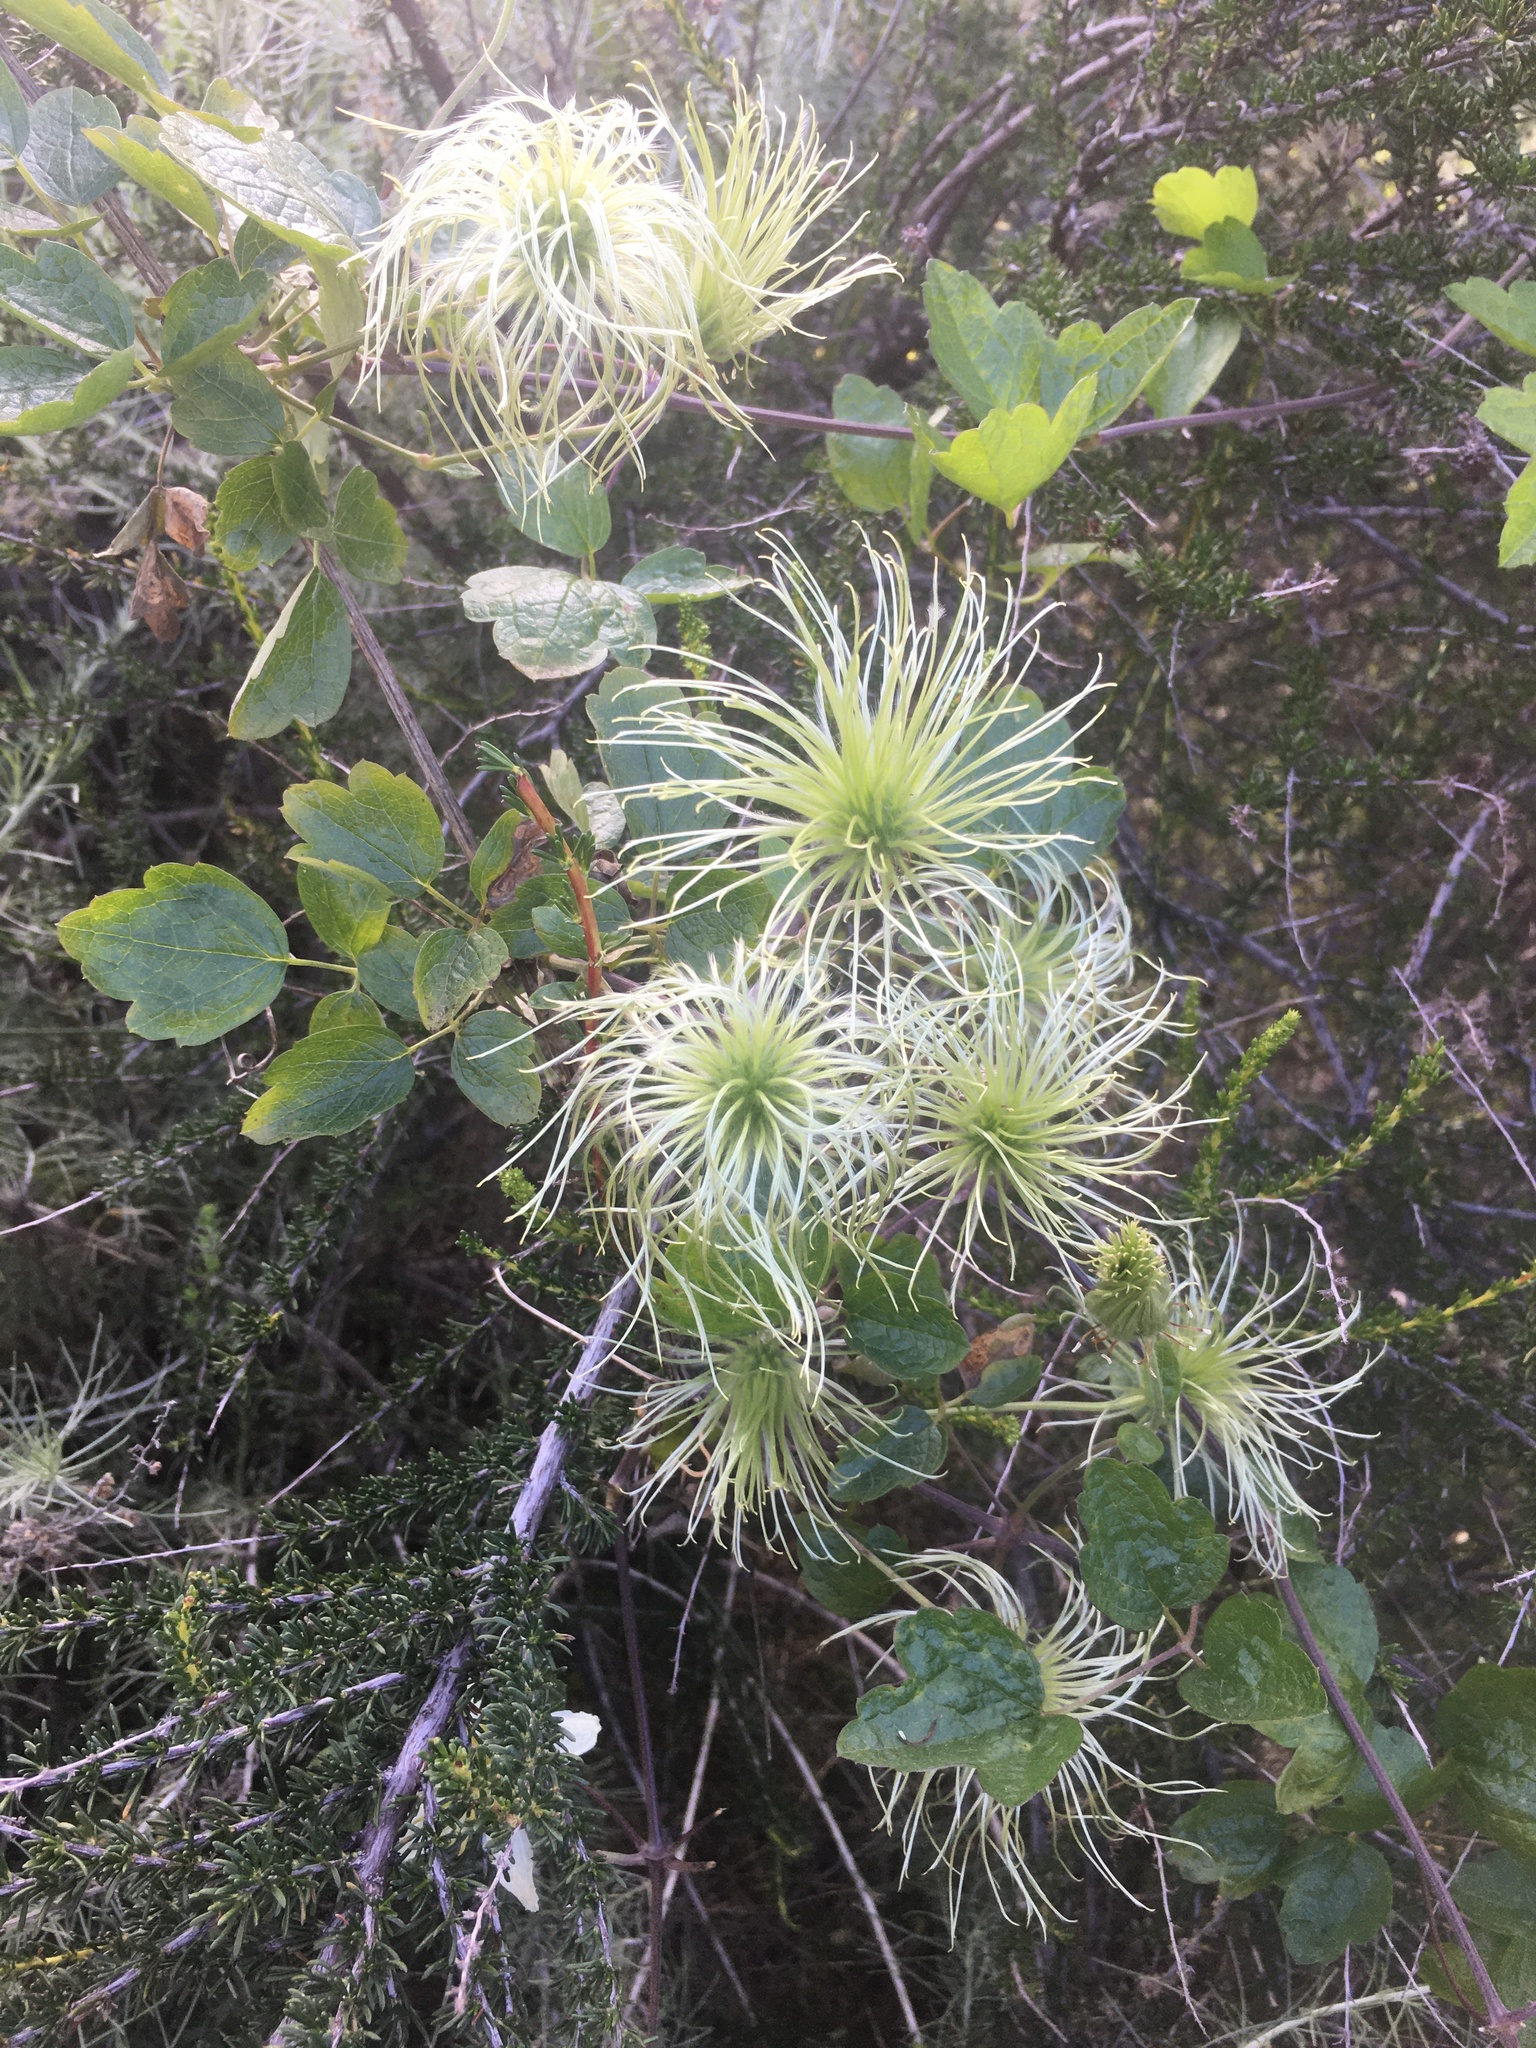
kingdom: Plantae
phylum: Tracheophyta
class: Magnoliopsida
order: Ranunculales
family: Ranunculaceae
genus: Clematis
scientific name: Clematis lasiantha
